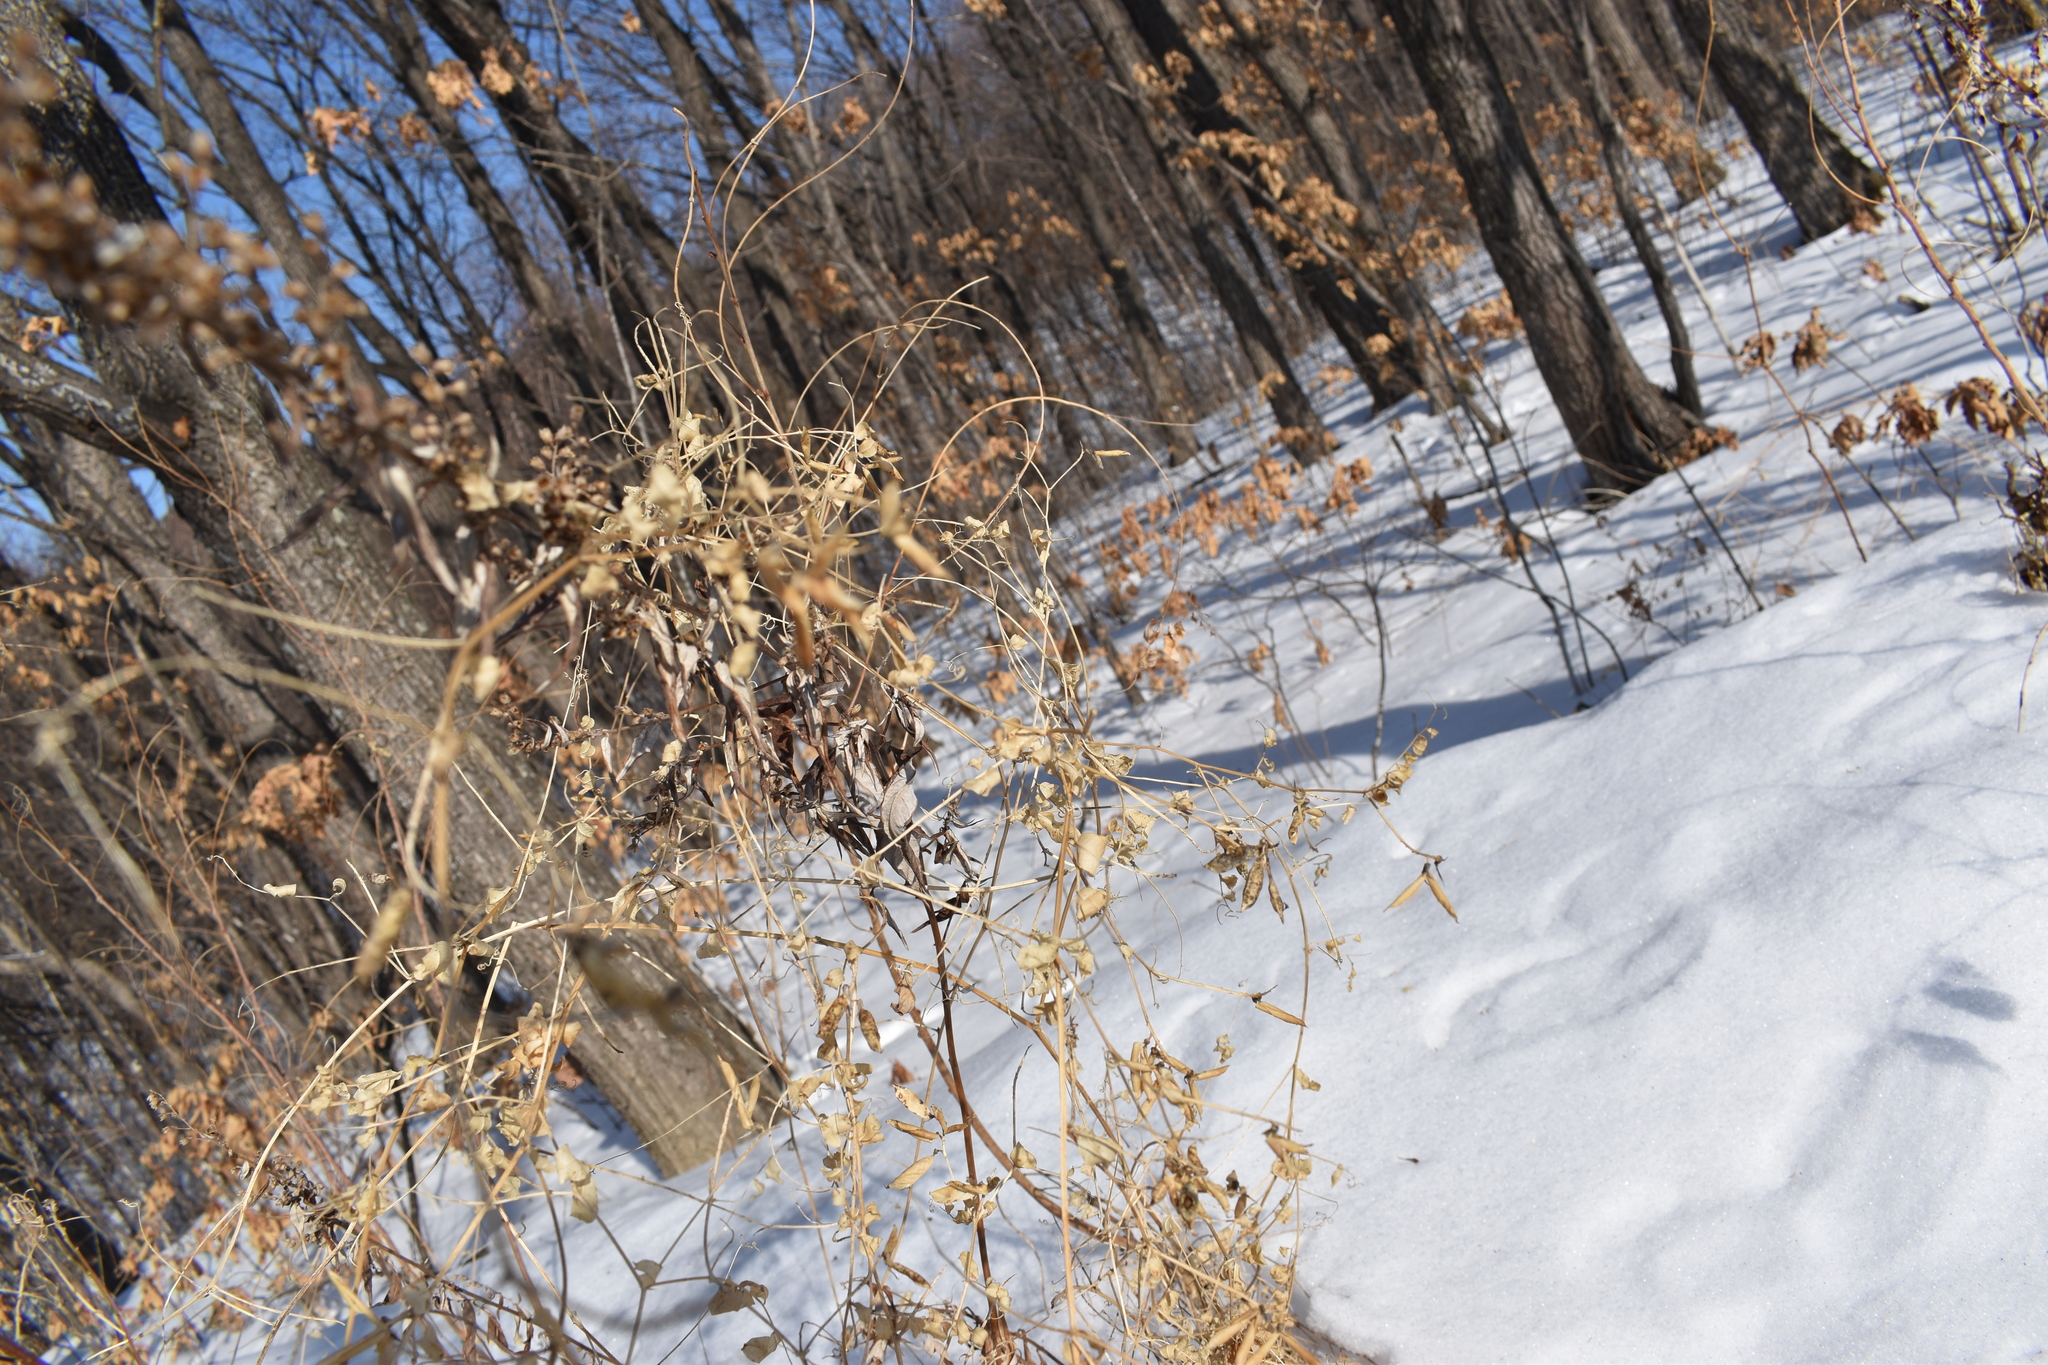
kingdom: Plantae
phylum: Tracheophyta
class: Magnoliopsida
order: Fabales
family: Fabaceae
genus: Vicia
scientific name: Vicia amurensis
